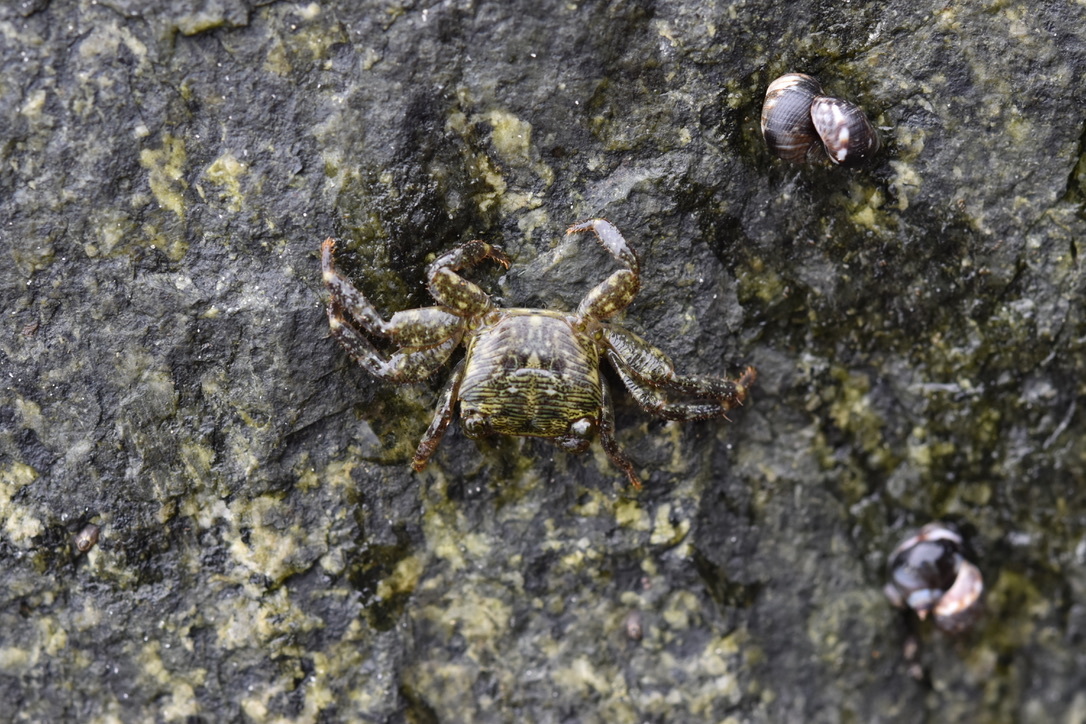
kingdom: Animalia
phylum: Arthropoda
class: Malacostraca
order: Decapoda
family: Grapsidae
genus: Pachygrapsus
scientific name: Pachygrapsus crassipes
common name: Striped shore crab
